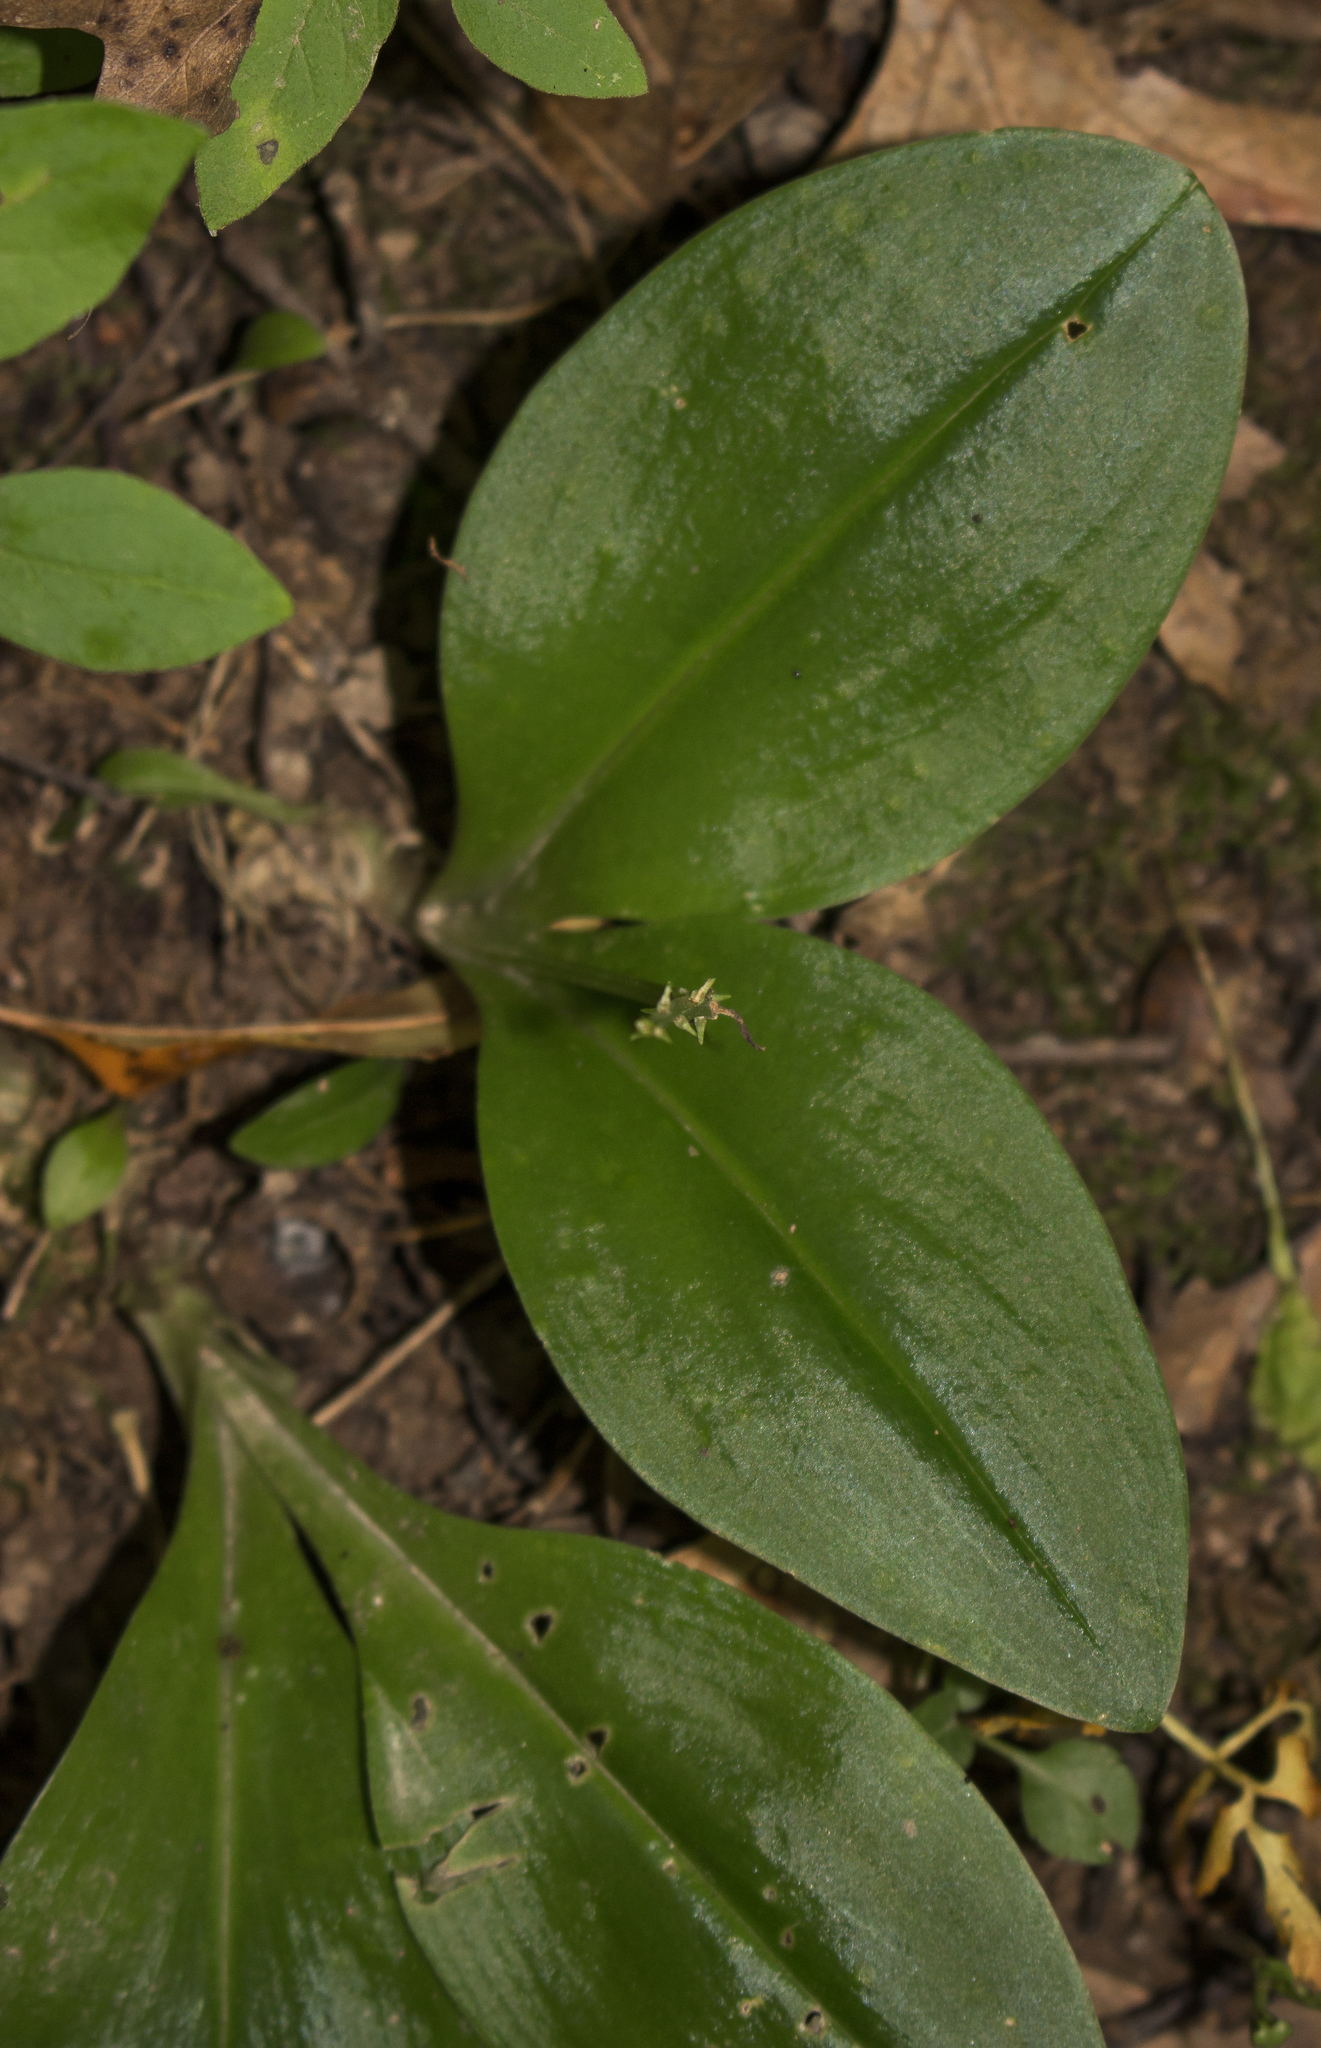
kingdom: Plantae
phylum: Tracheophyta
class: Liliopsida
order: Asparagales
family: Orchidaceae
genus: Liparis
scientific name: Liparis liliifolia
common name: Brown wide-lip orchid
